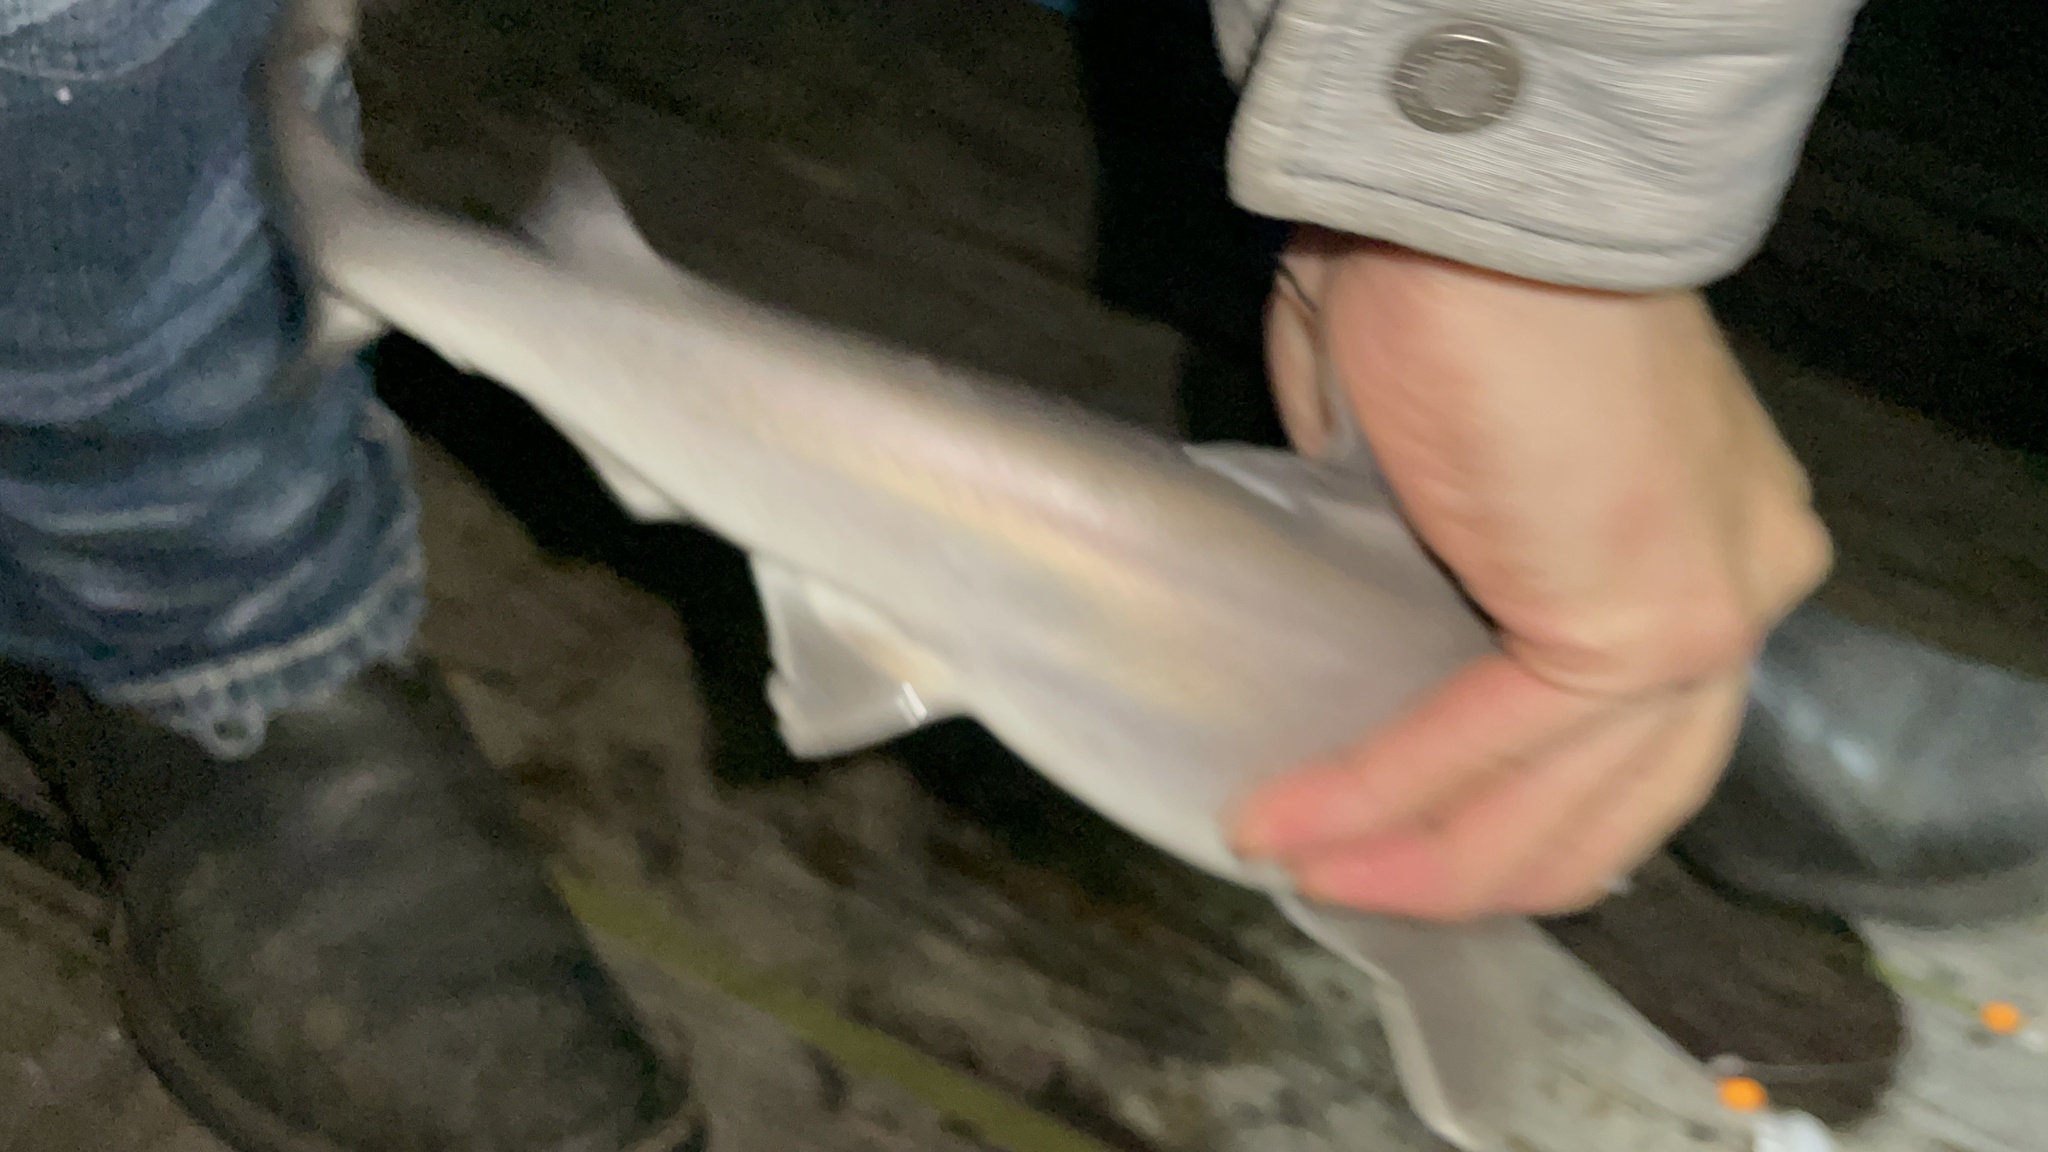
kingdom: Animalia
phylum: Chordata
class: Elasmobranchii
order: Carcharhiniformes
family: Sphyrnidae
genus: Sphyrna
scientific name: Sphyrna tiburo
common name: Bonnethead
